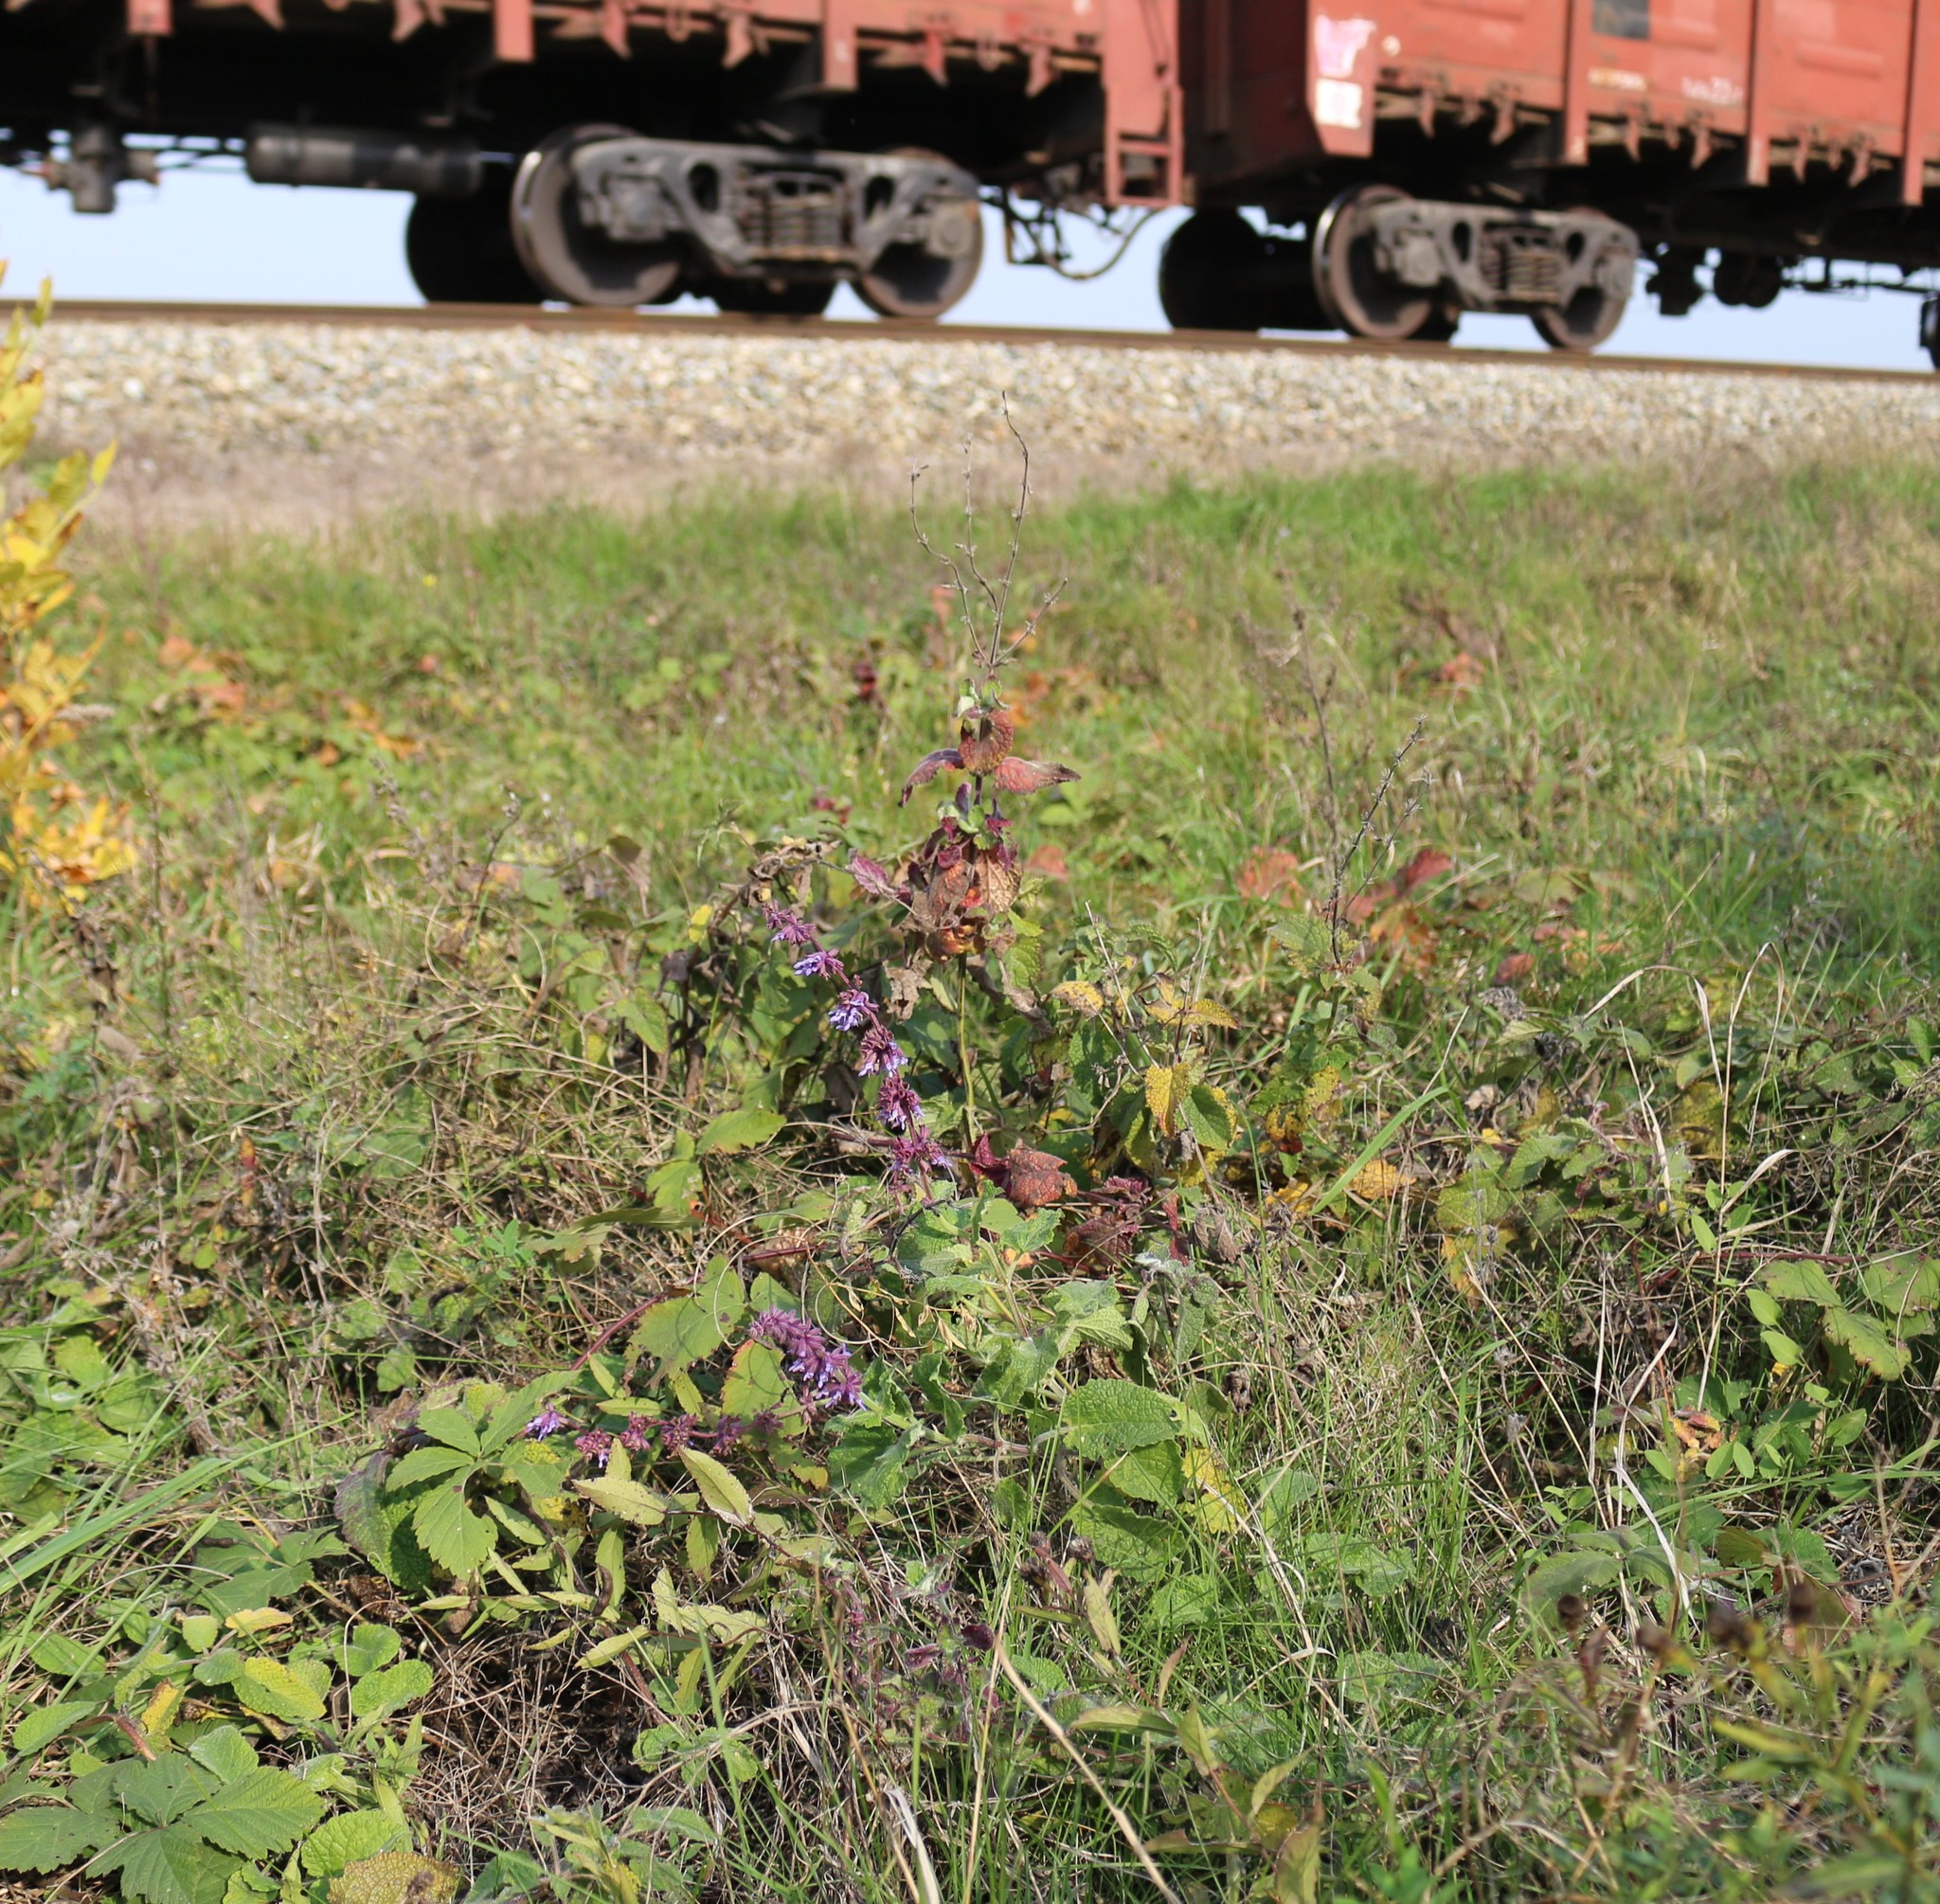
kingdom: Plantae
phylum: Tracheophyta
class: Magnoliopsida
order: Lamiales
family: Lamiaceae
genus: Salvia
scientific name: Salvia verticillata
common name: Whorled clary
